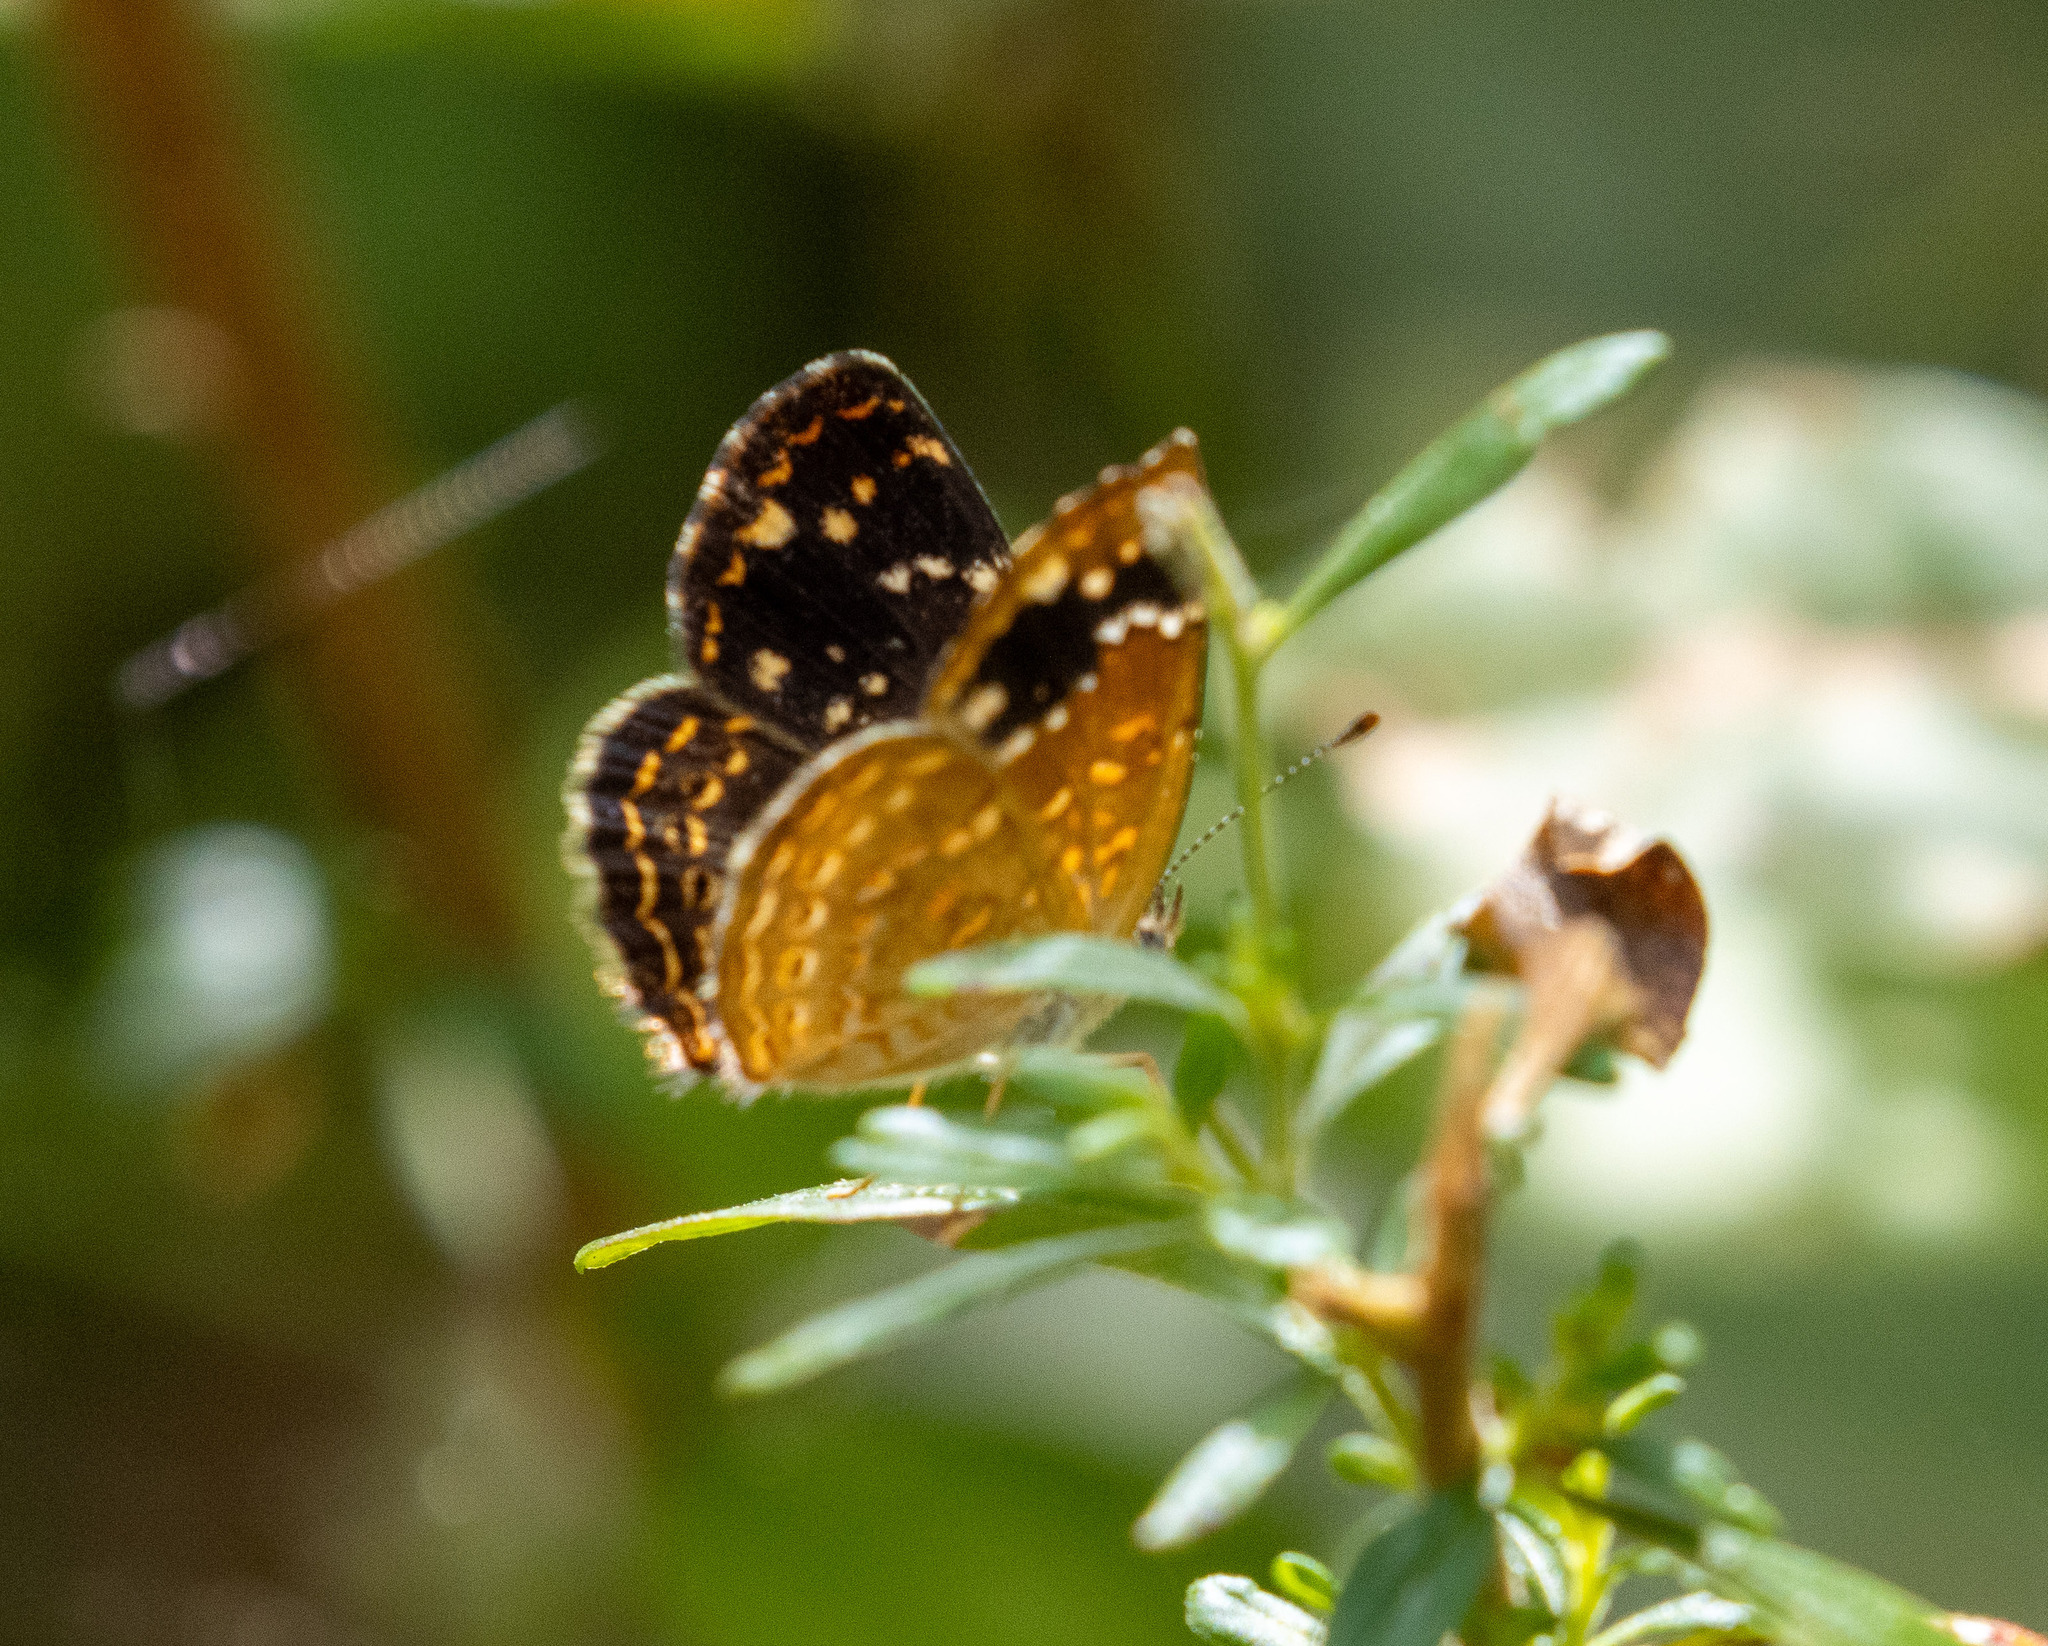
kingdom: Animalia
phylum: Arthropoda
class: Insecta
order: Lepidoptera
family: Nymphalidae
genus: Phystis
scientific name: Phystis simois
